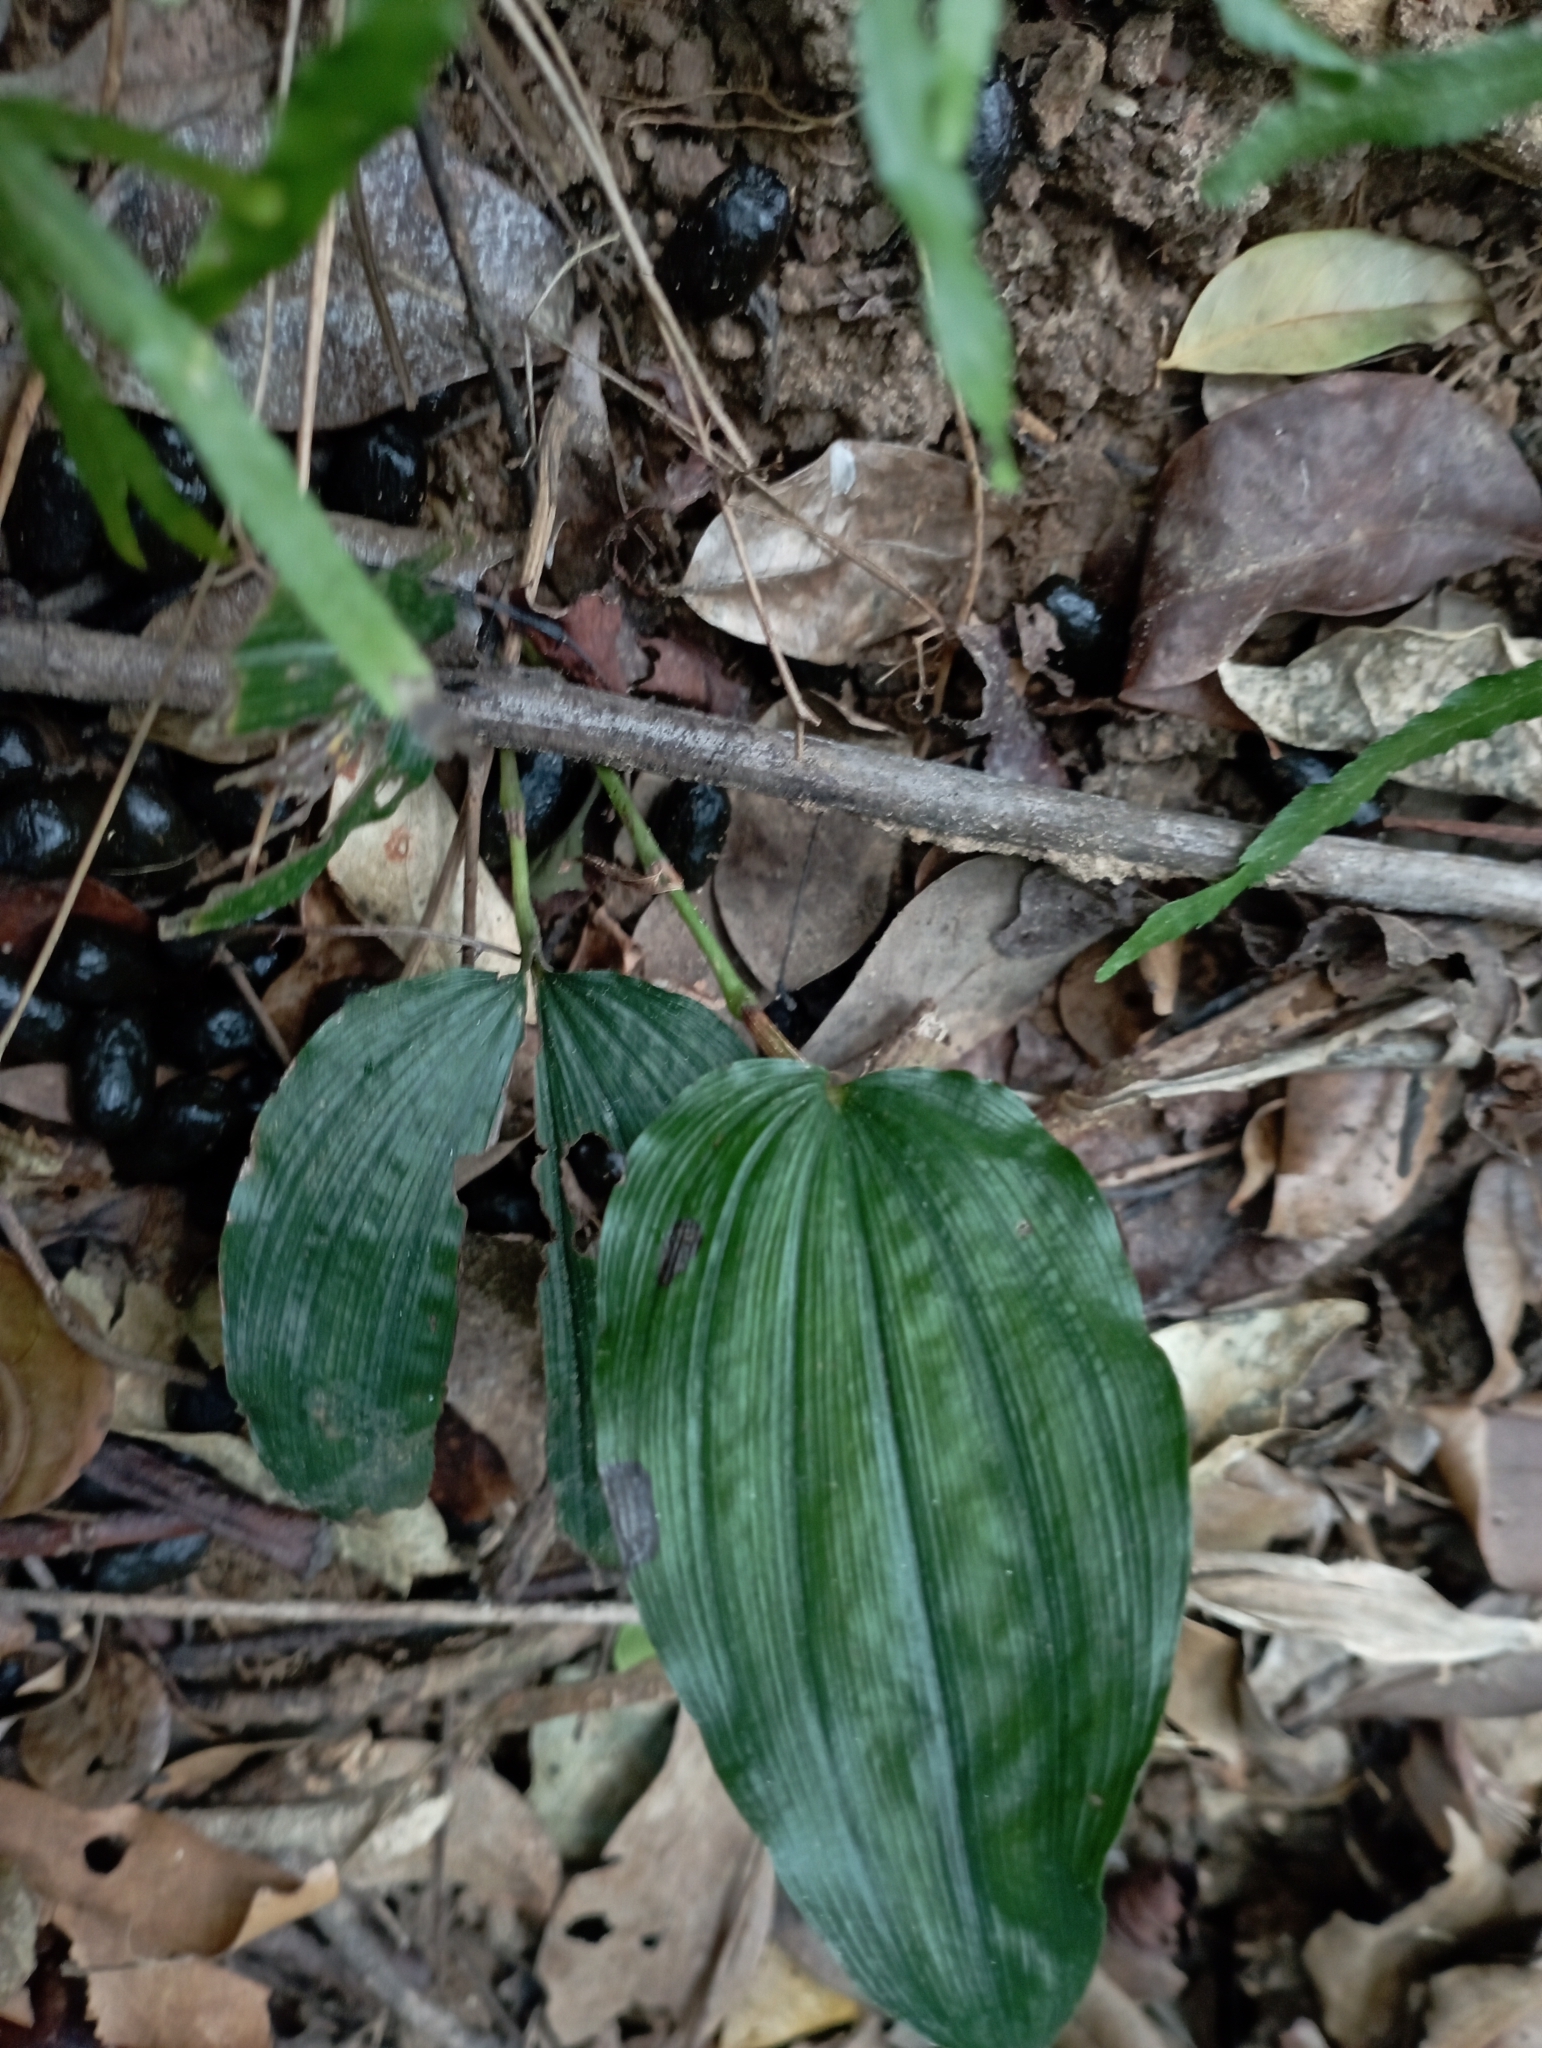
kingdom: Plantae
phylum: Tracheophyta
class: Liliopsida
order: Asparagales
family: Orchidaceae
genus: Tropidia
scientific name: Tropidia somae
